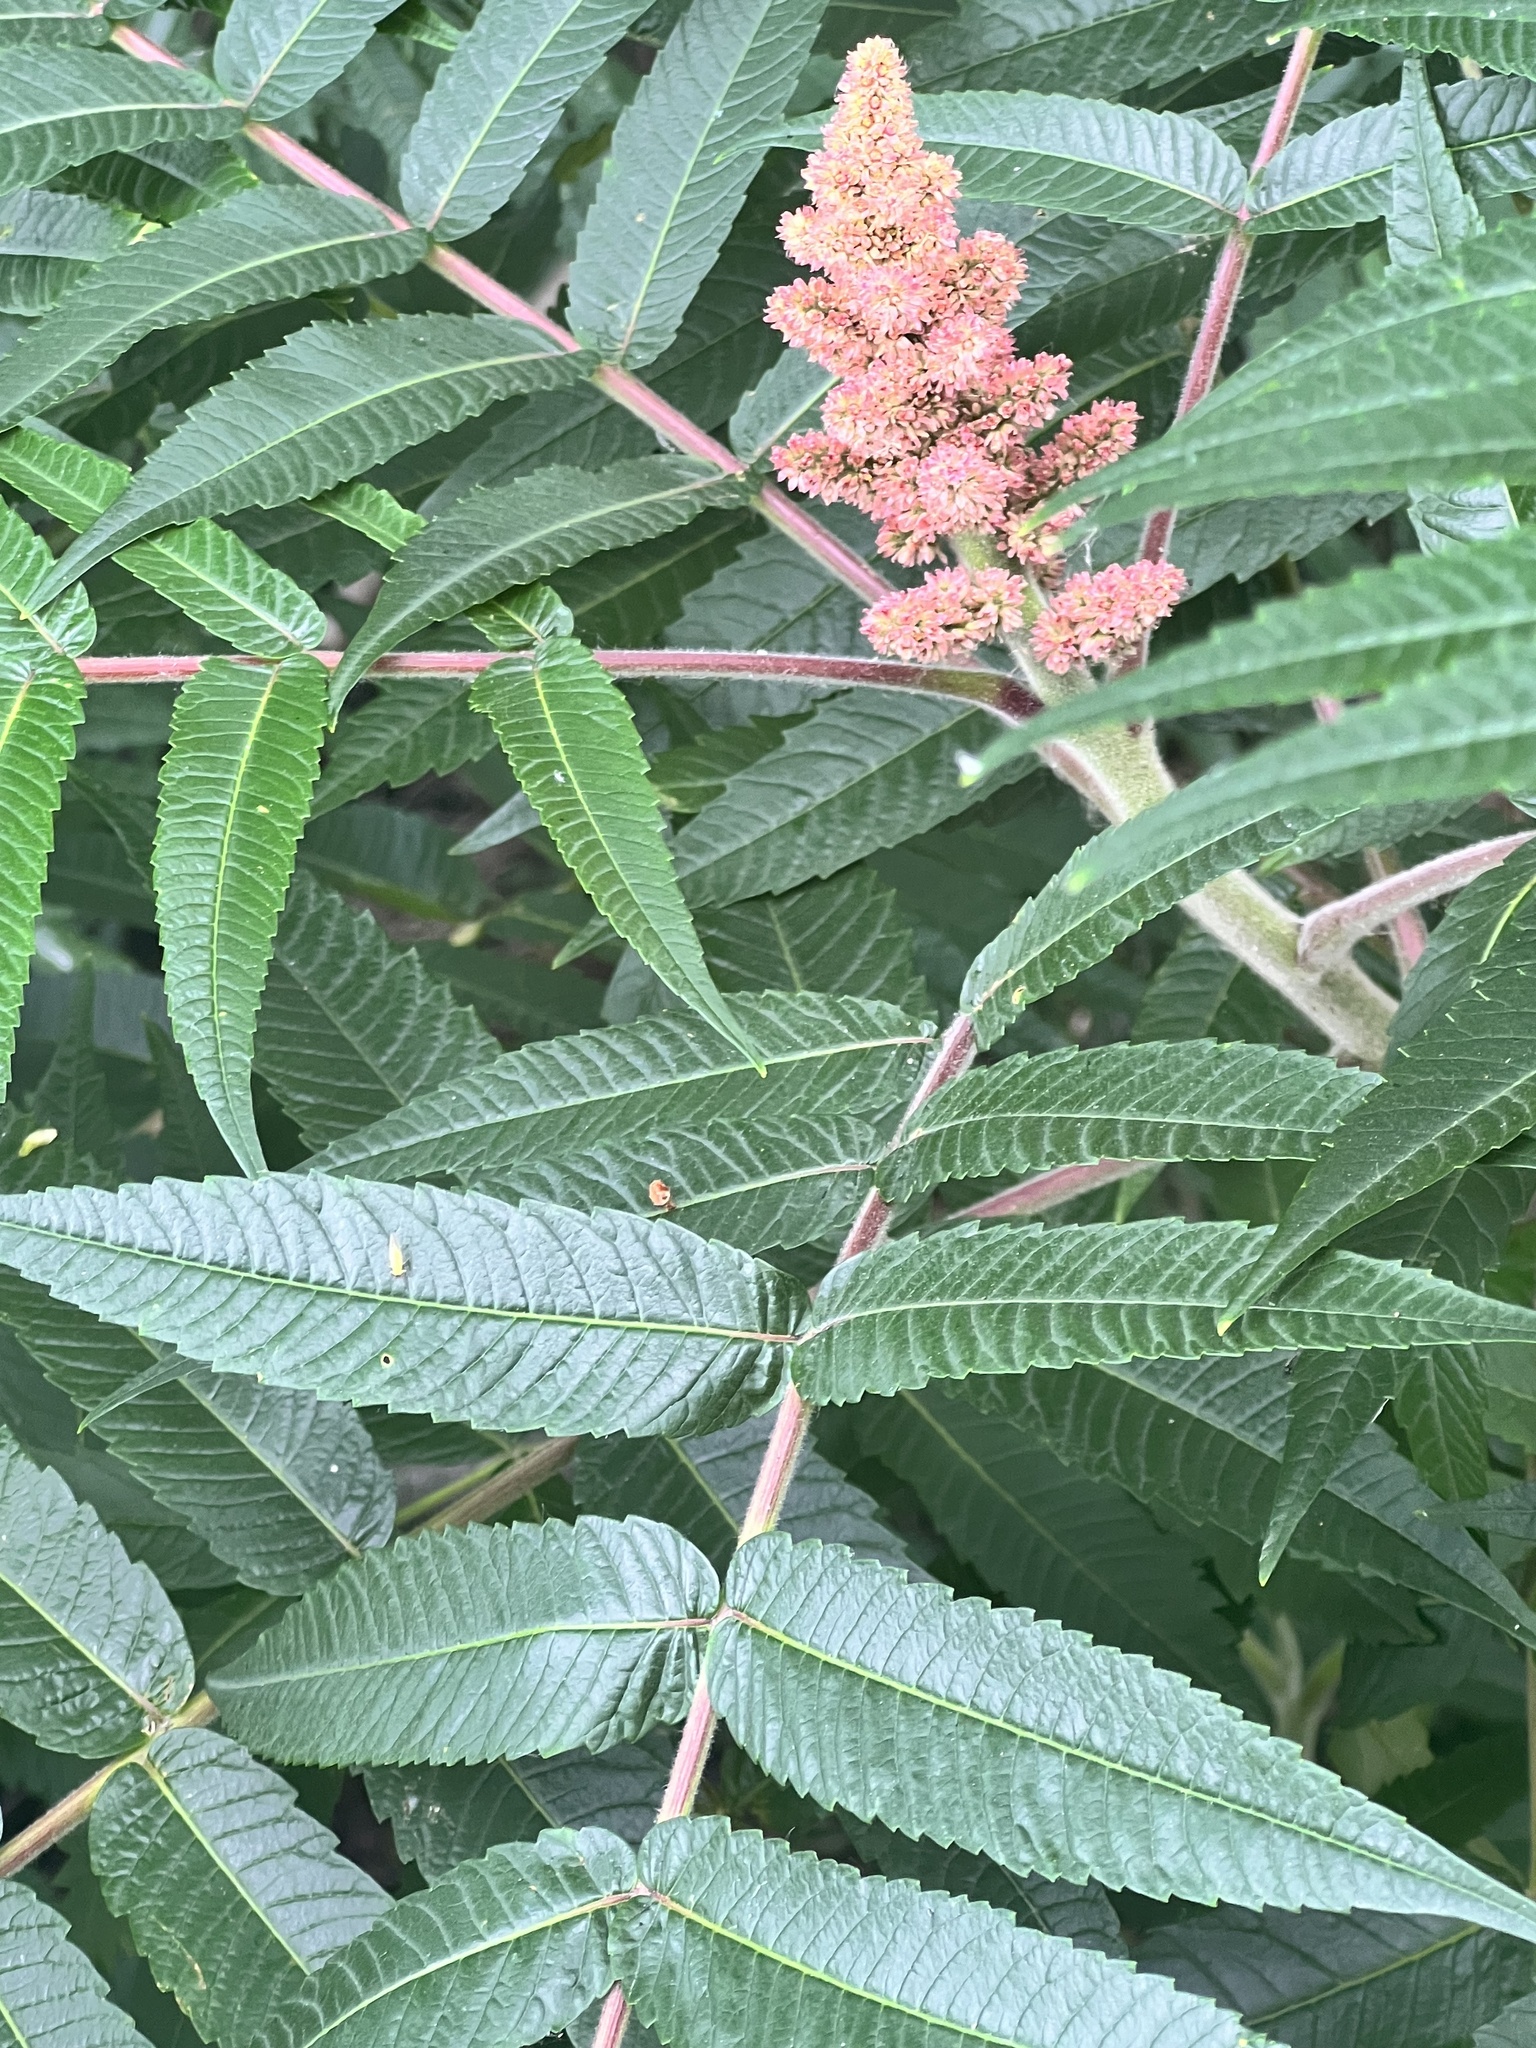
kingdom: Plantae
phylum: Tracheophyta
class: Magnoliopsida
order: Sapindales
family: Anacardiaceae
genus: Rhus
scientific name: Rhus typhina
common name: Staghorn sumac
